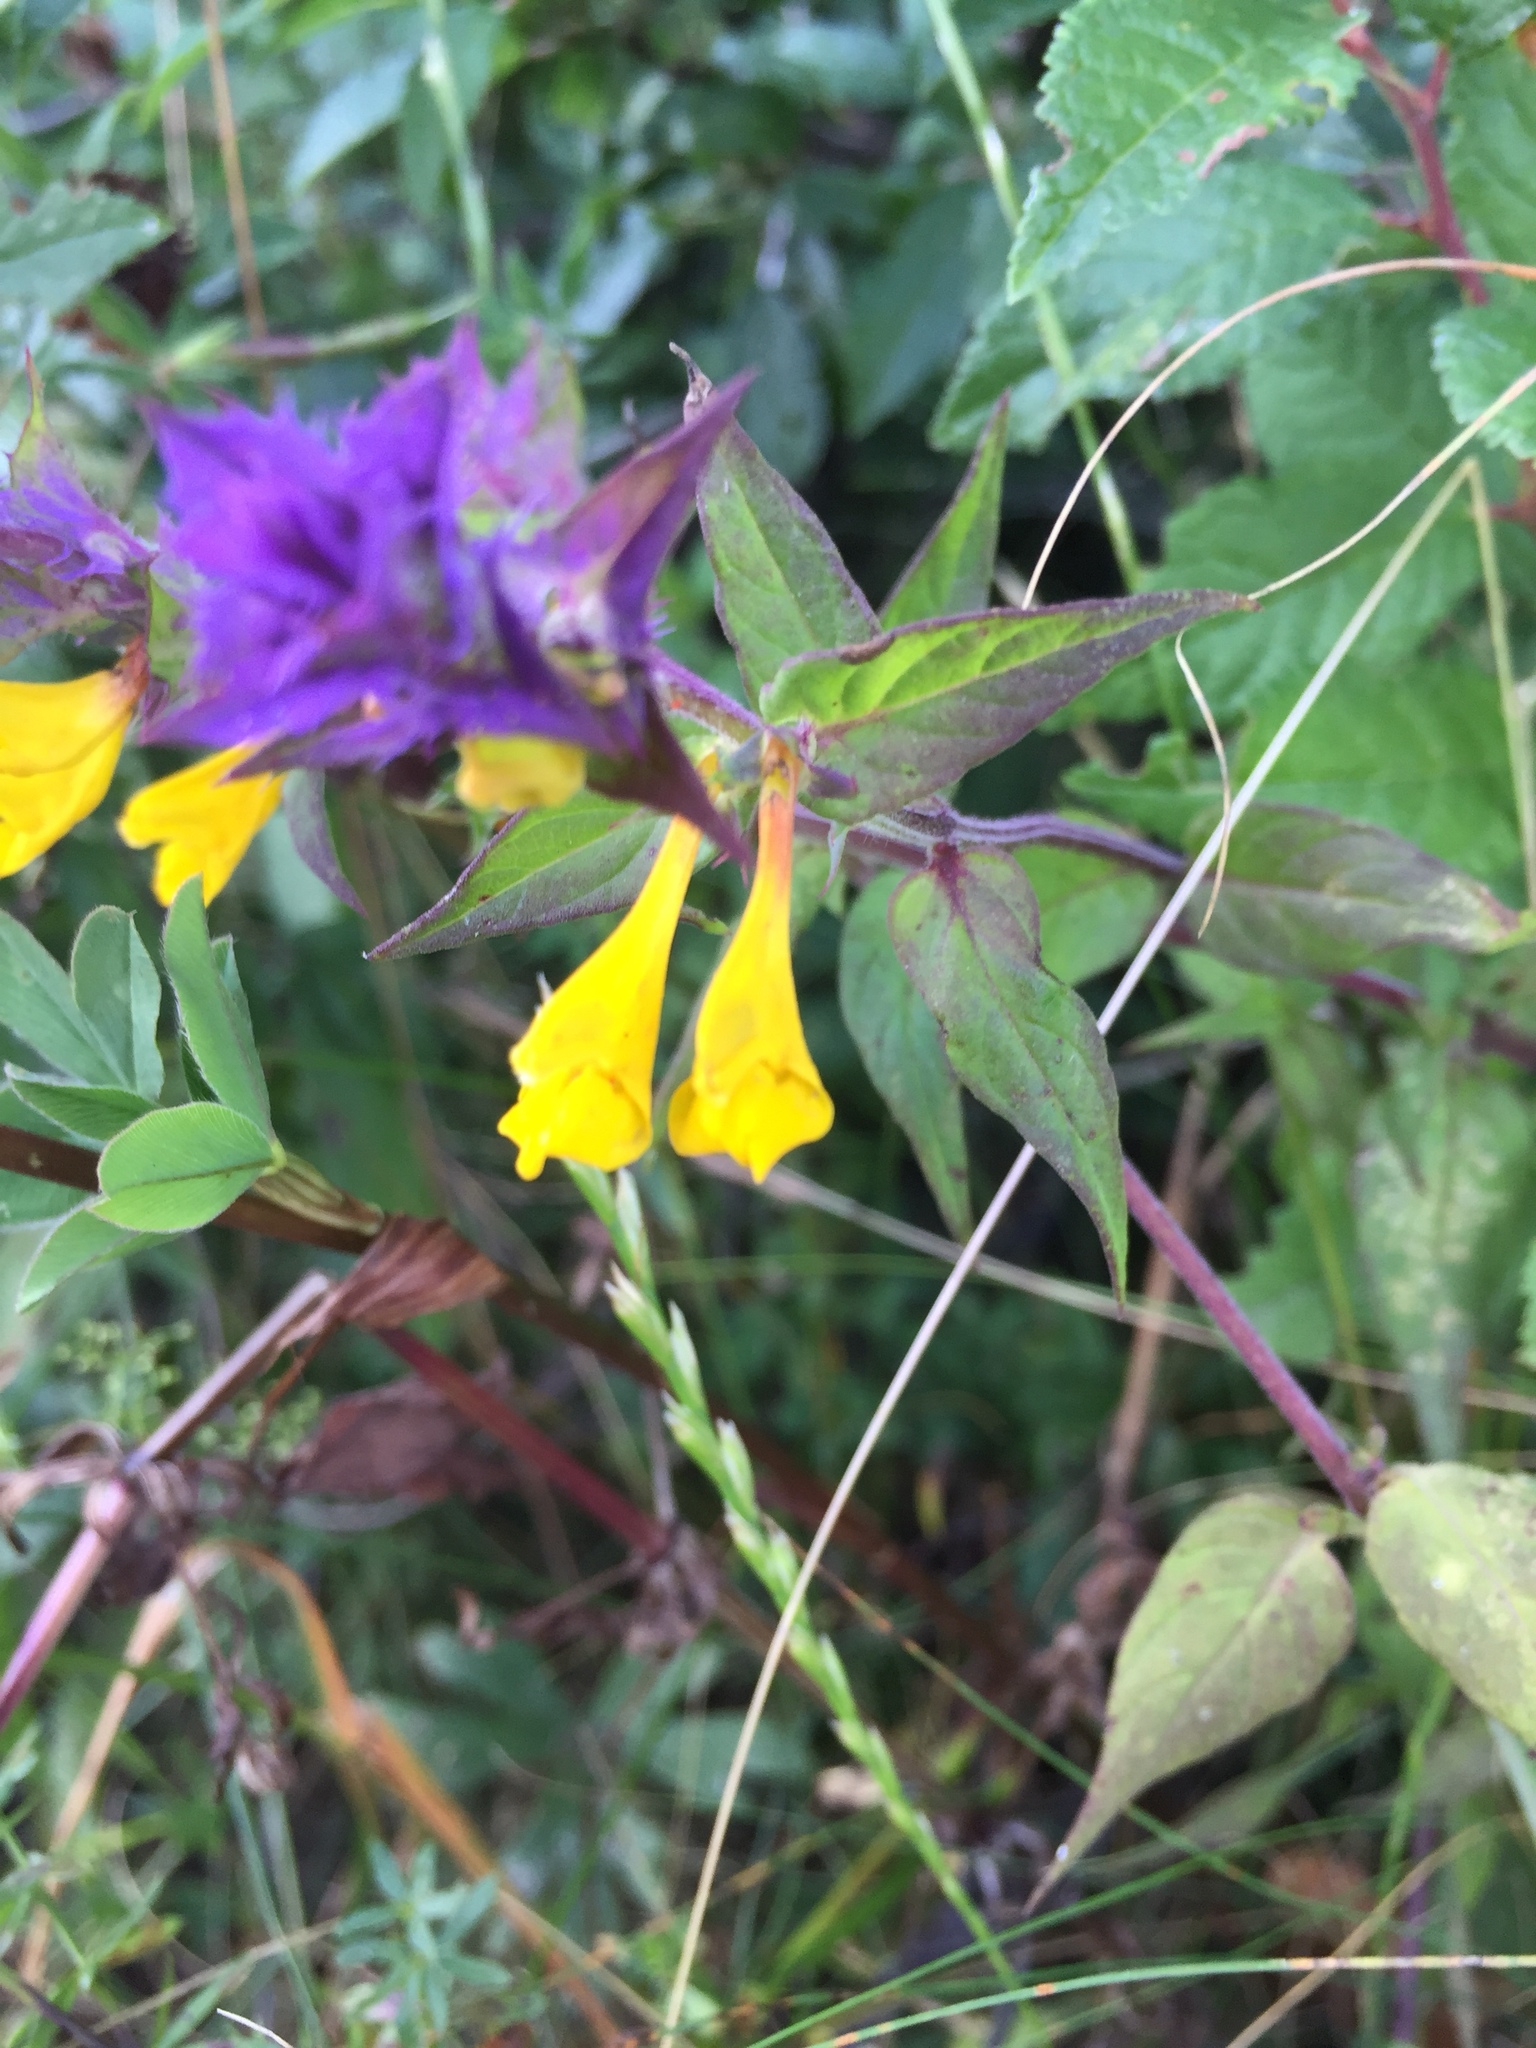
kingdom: Plantae
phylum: Tracheophyta
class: Magnoliopsida
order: Lamiales
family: Orobanchaceae
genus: Melampyrum
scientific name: Melampyrum nemorosum
